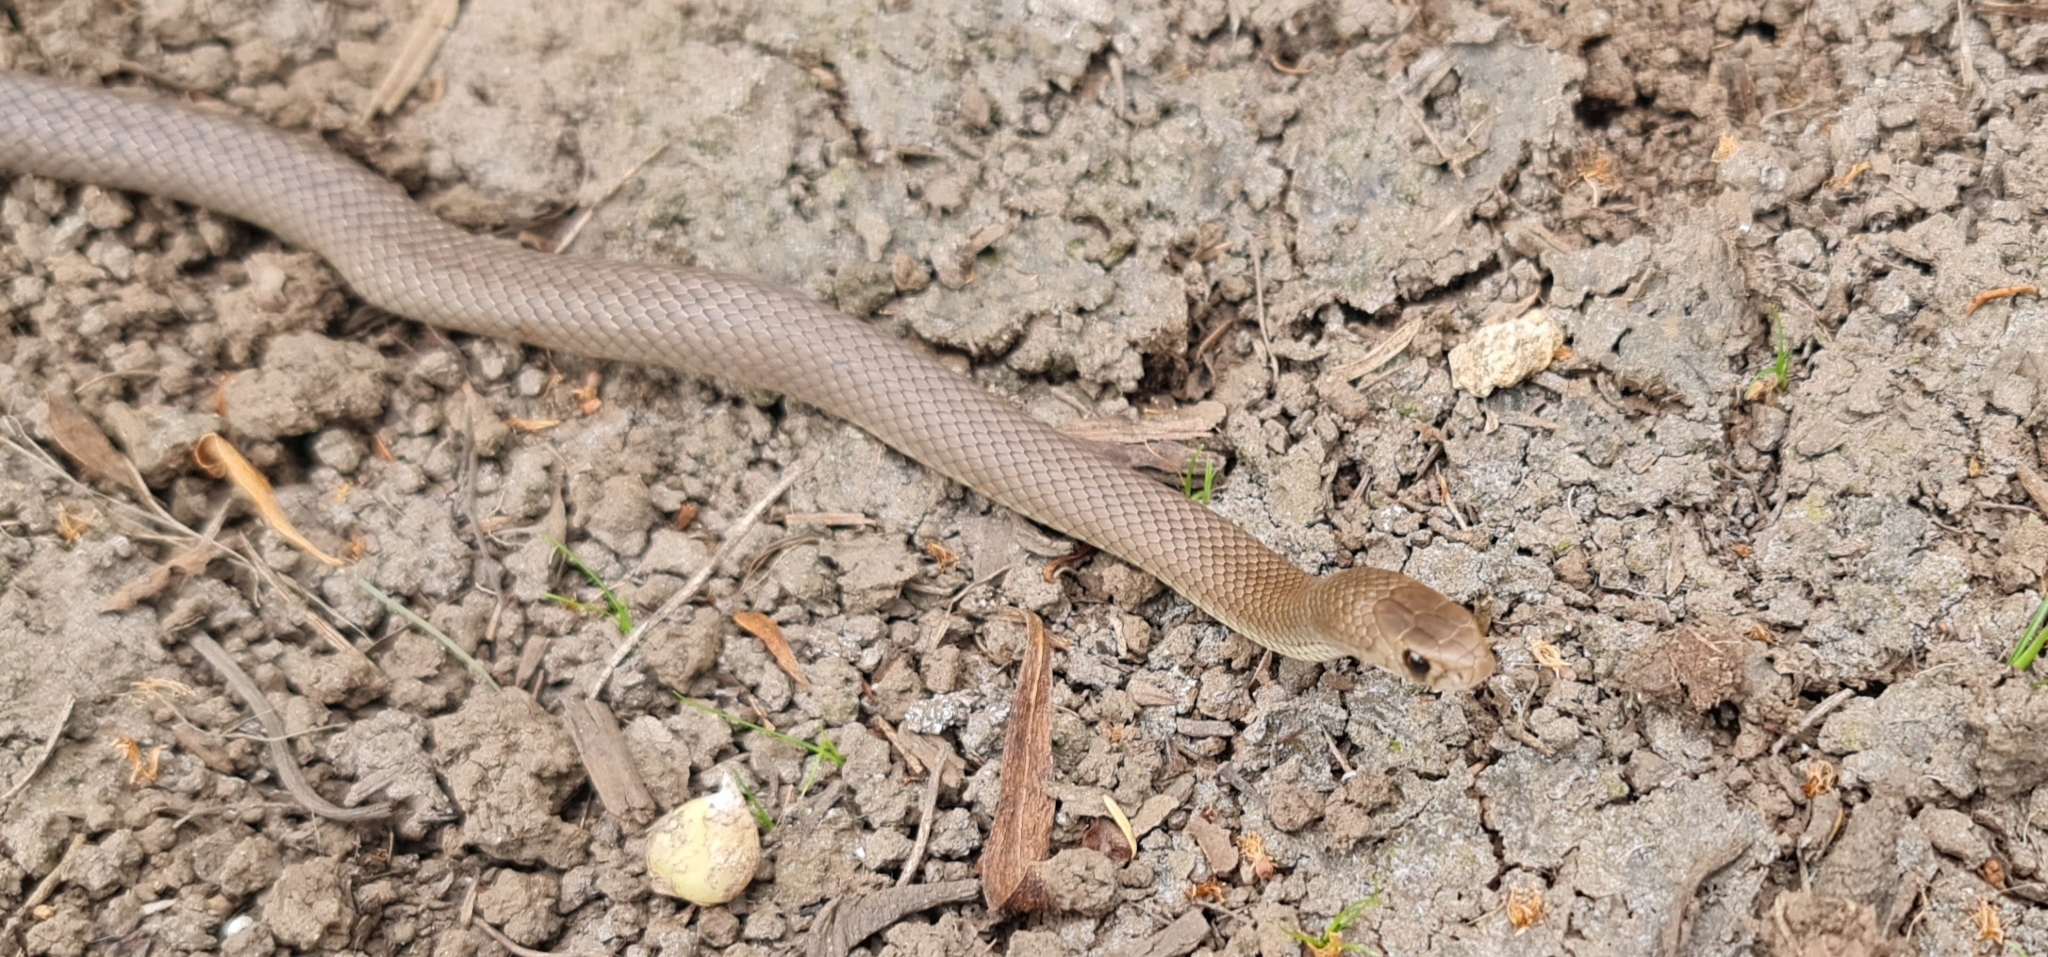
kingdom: Animalia
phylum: Chordata
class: Squamata
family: Elapidae
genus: Pseudonaja
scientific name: Pseudonaja textilis
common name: Eastern brown snake
